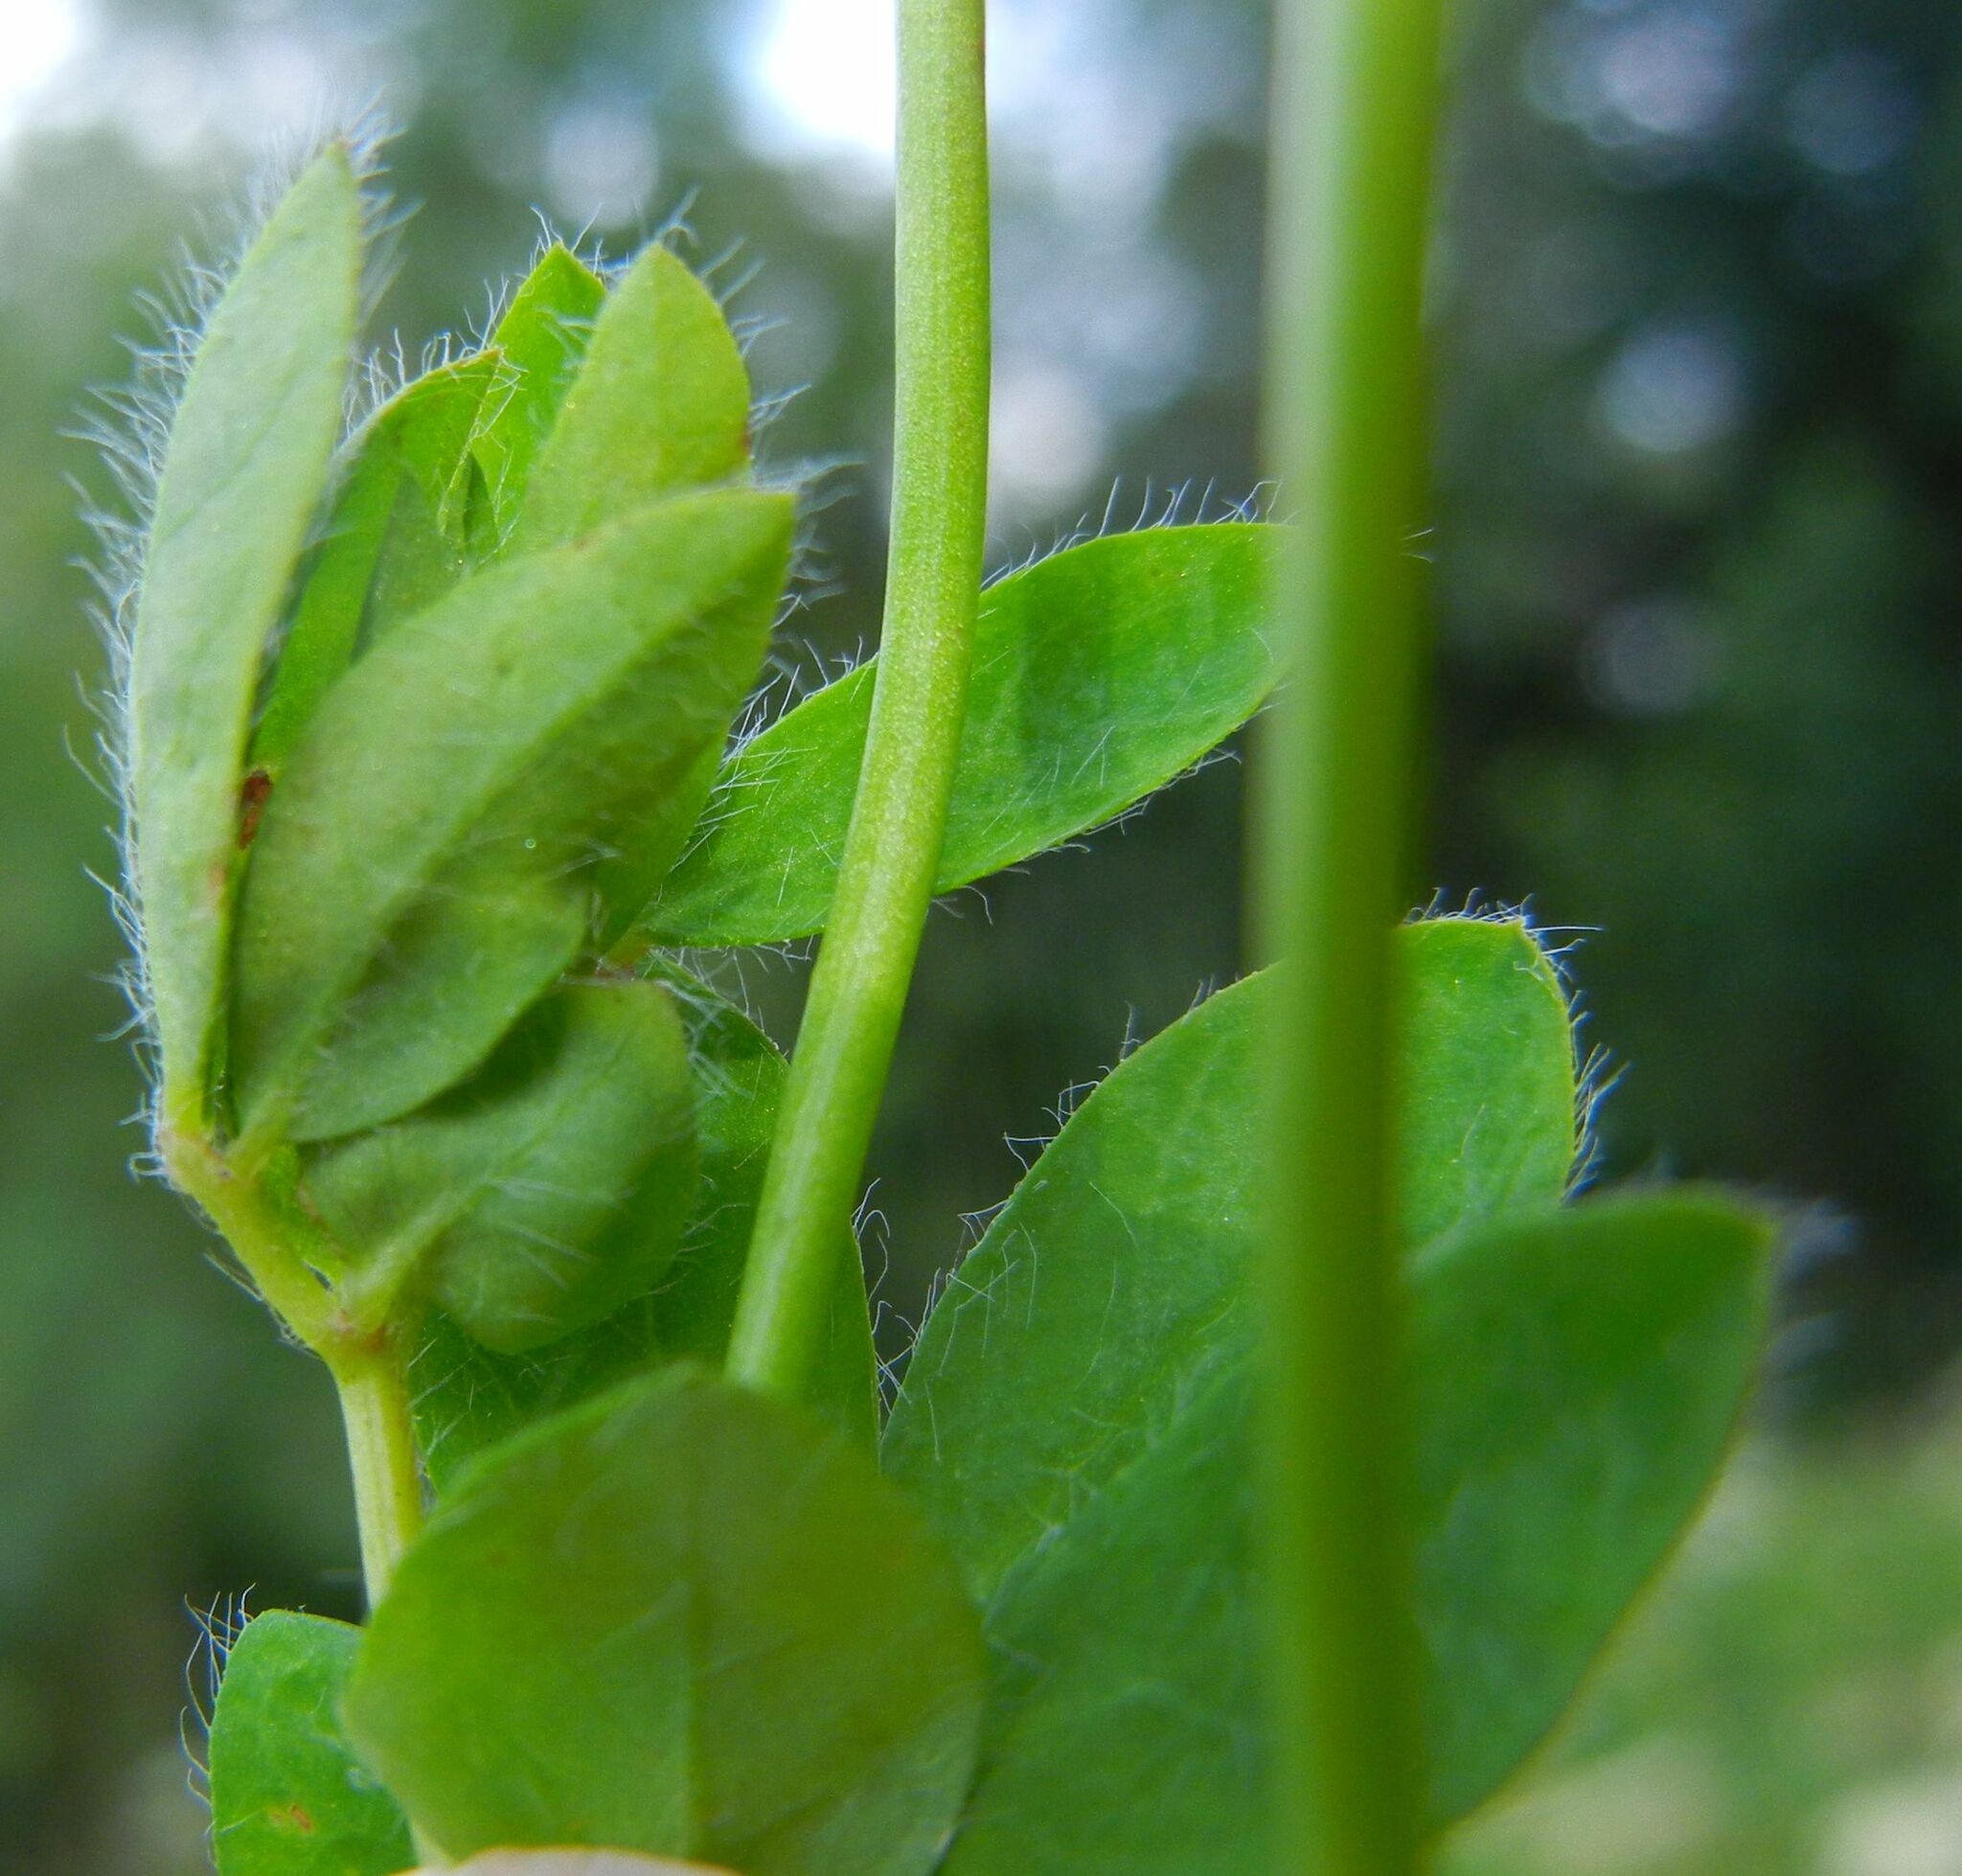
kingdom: Plantae
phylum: Tracheophyta
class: Magnoliopsida
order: Fabales
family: Fabaceae
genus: Lotus
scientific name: Lotus pedunculatus
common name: Greater birdsfoot-trefoil
